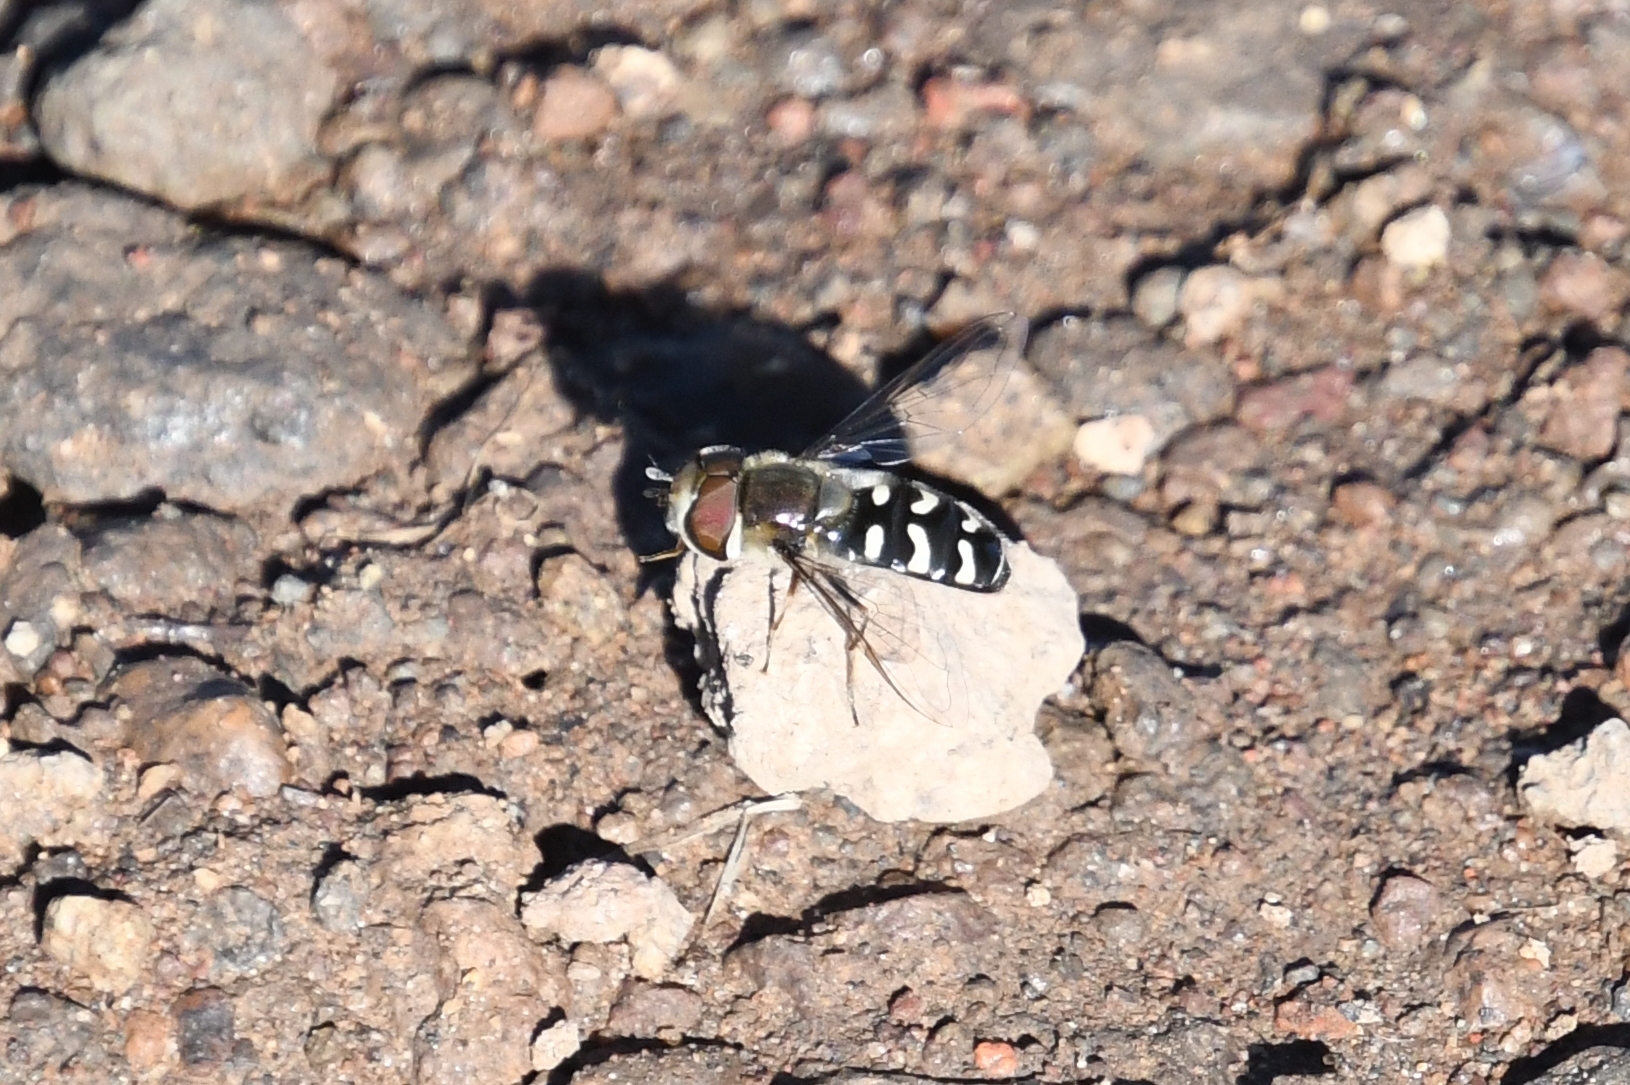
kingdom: Animalia
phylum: Arthropoda
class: Insecta
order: Diptera
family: Syrphidae
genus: Scaeva
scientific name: Scaeva affinis
